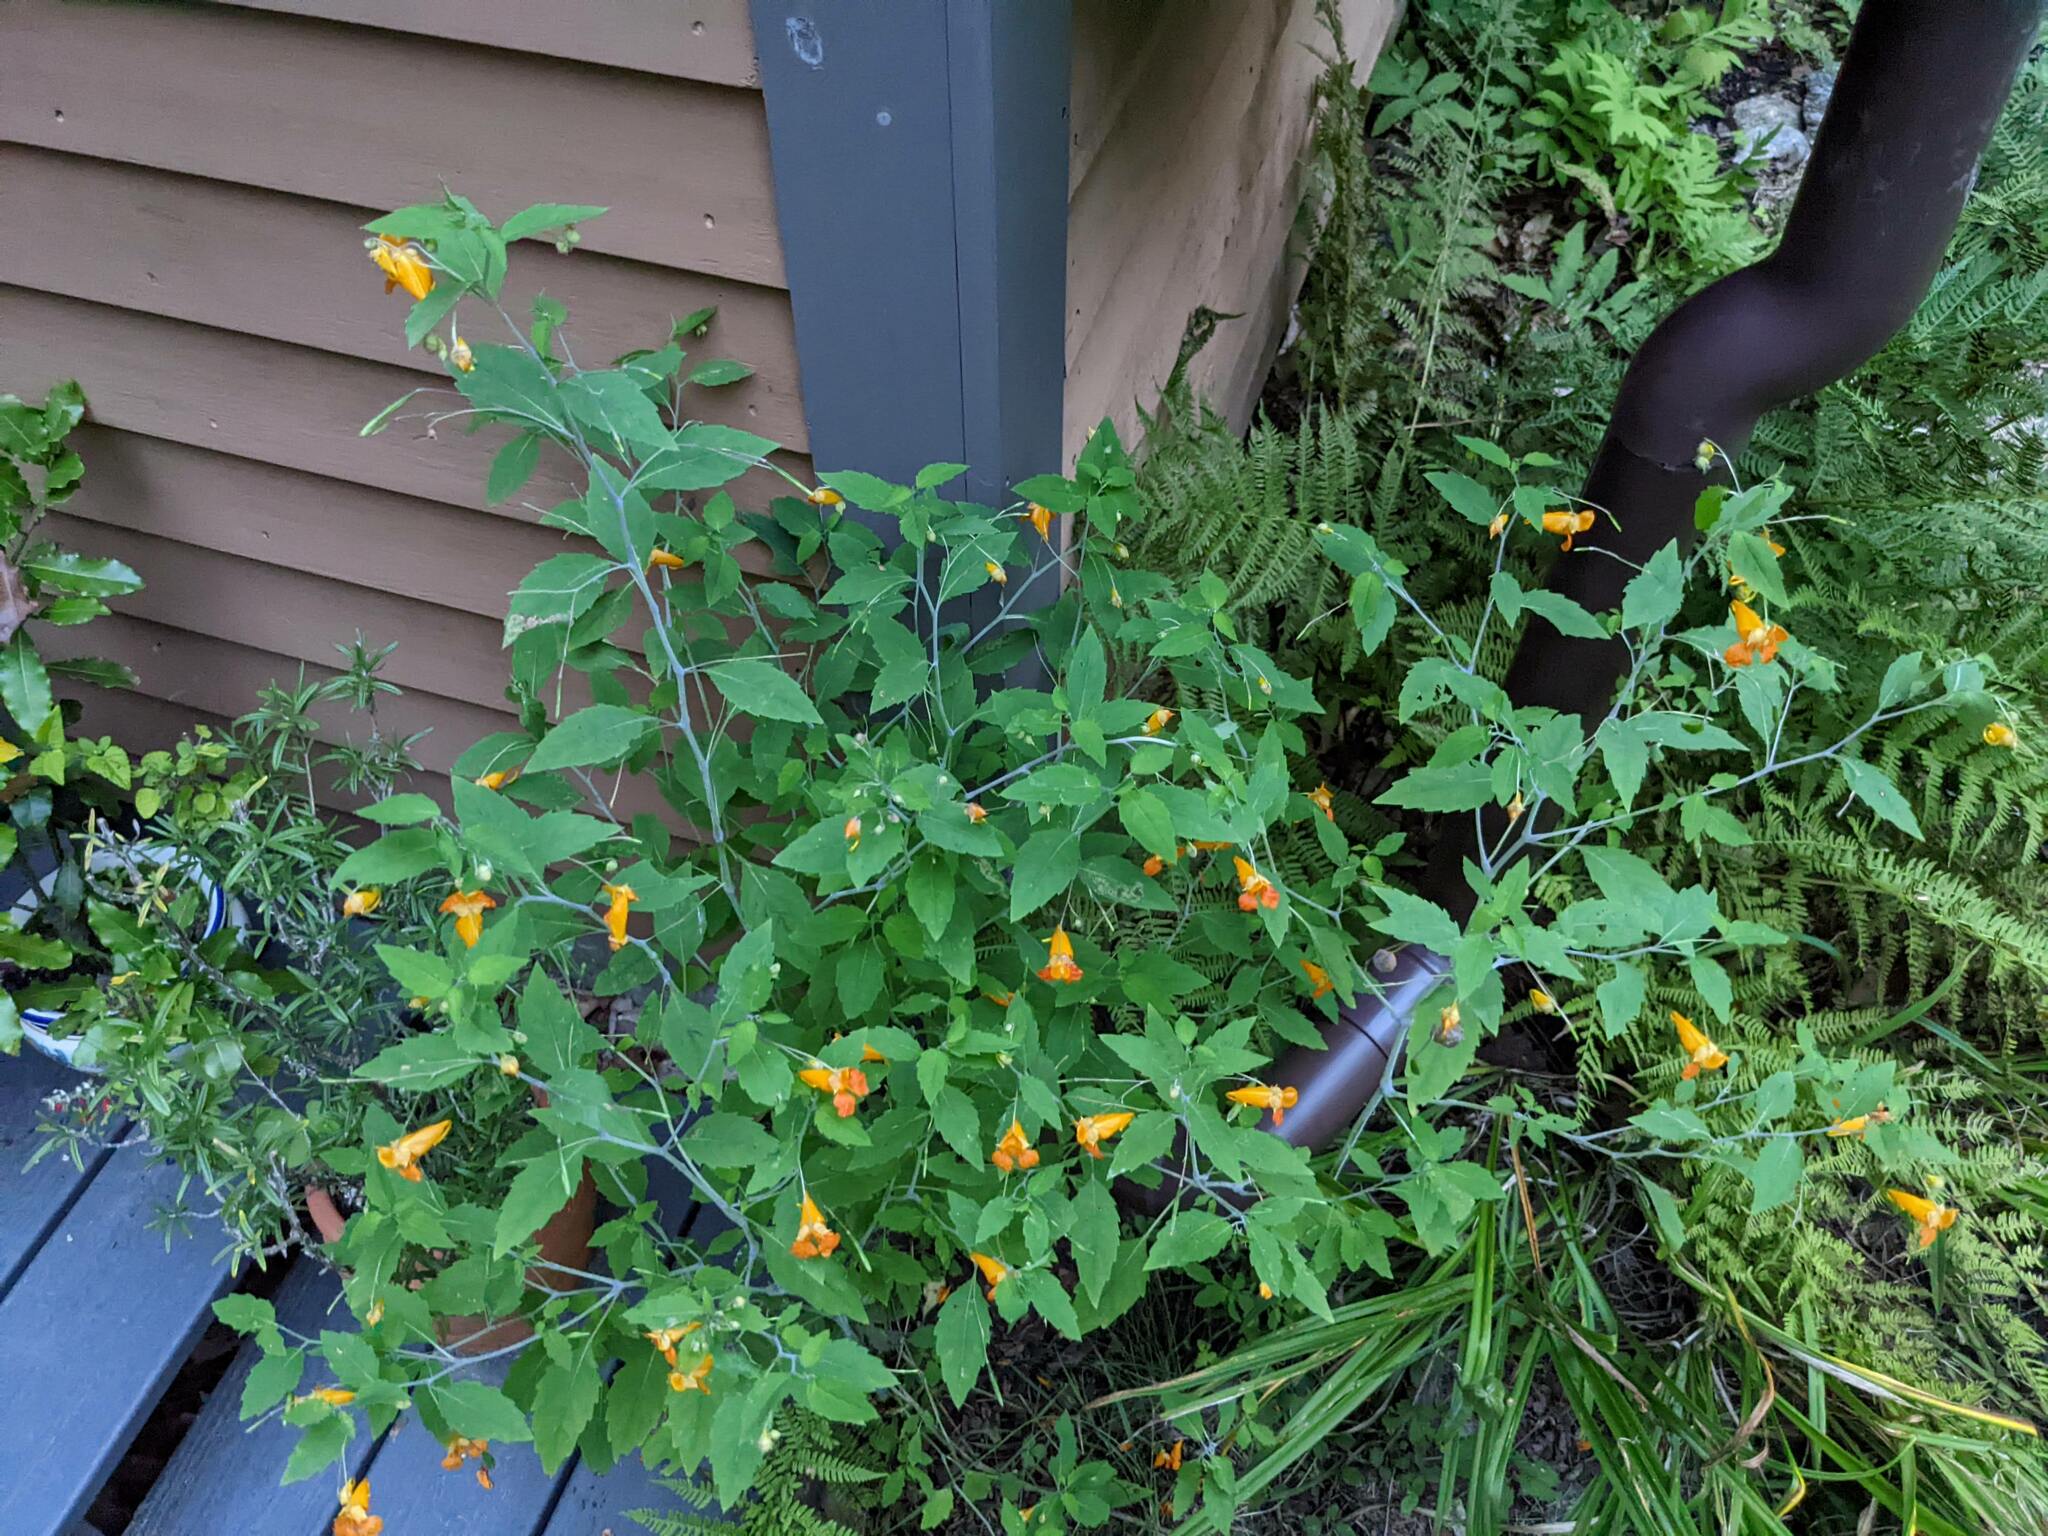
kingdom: Plantae
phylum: Tracheophyta
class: Magnoliopsida
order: Ericales
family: Balsaminaceae
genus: Impatiens
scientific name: Impatiens capensis
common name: Orange balsam
